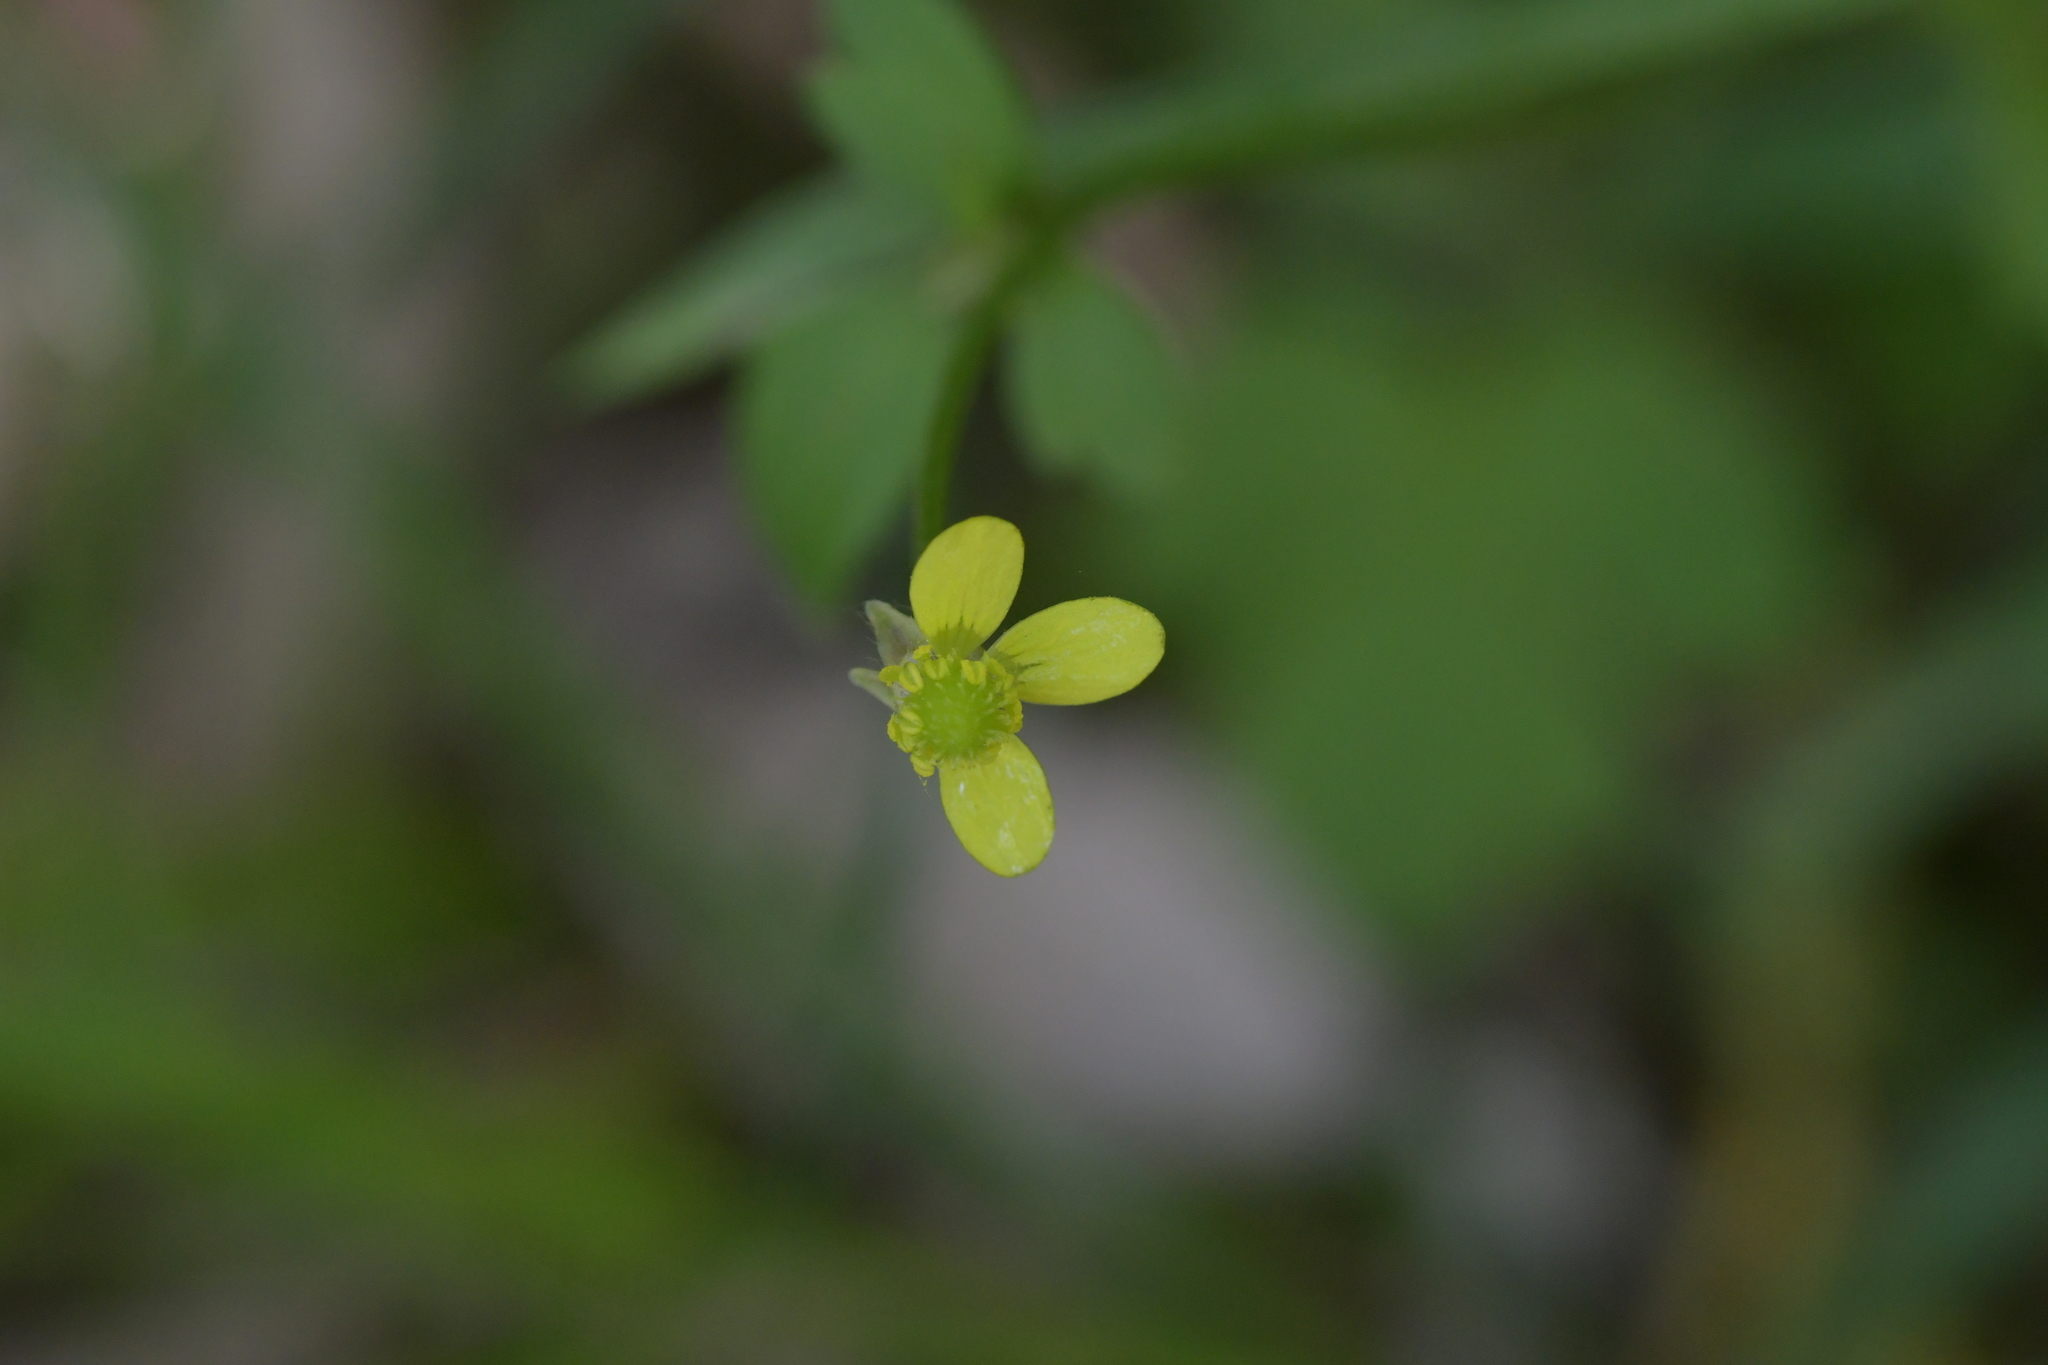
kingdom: Plantae
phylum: Tracheophyta
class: Magnoliopsida
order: Ranunculales
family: Ranunculaceae
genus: Ranunculus
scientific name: Ranunculus reflexus
